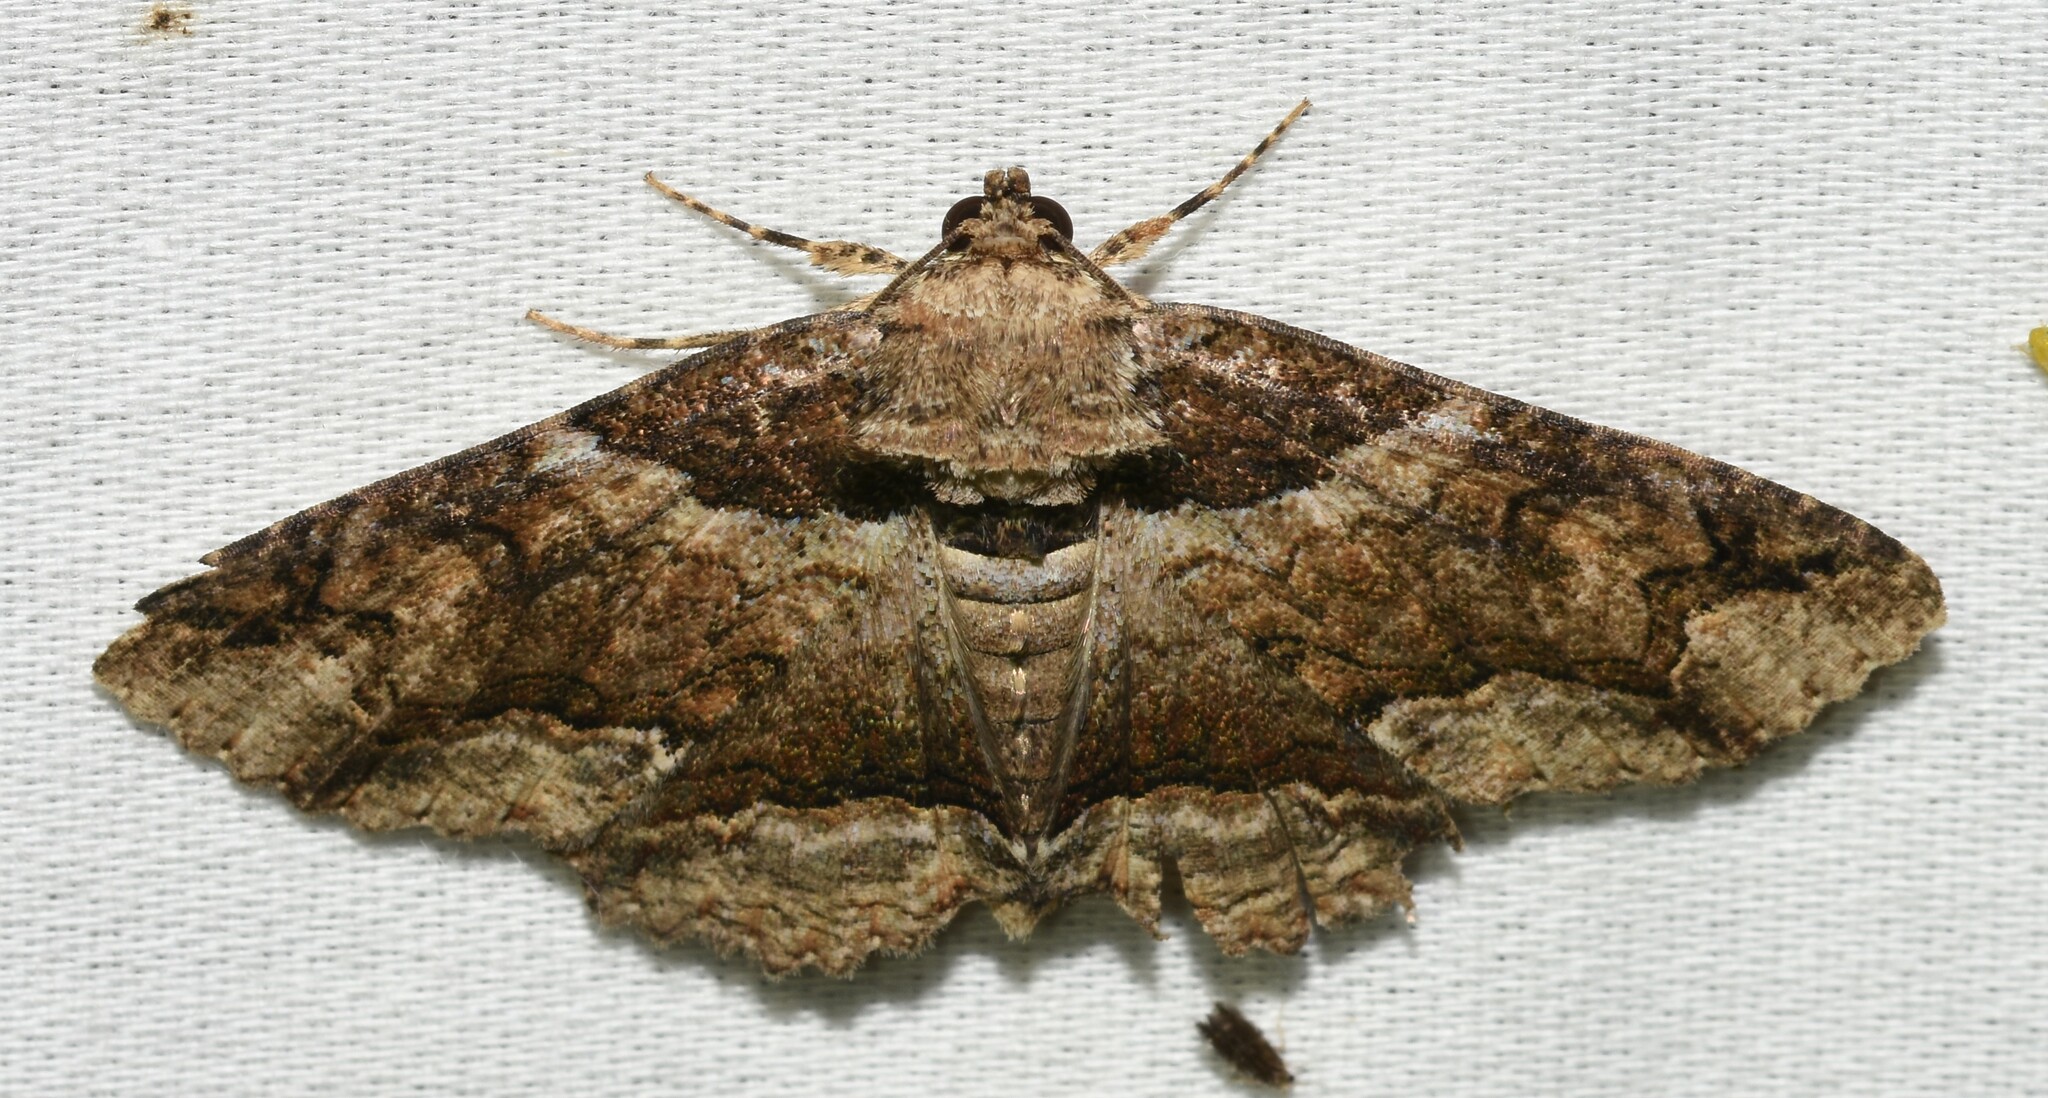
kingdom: Animalia
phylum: Arthropoda
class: Insecta
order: Lepidoptera
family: Erebidae
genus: Zale
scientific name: Zale galbanata
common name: Maple zale
